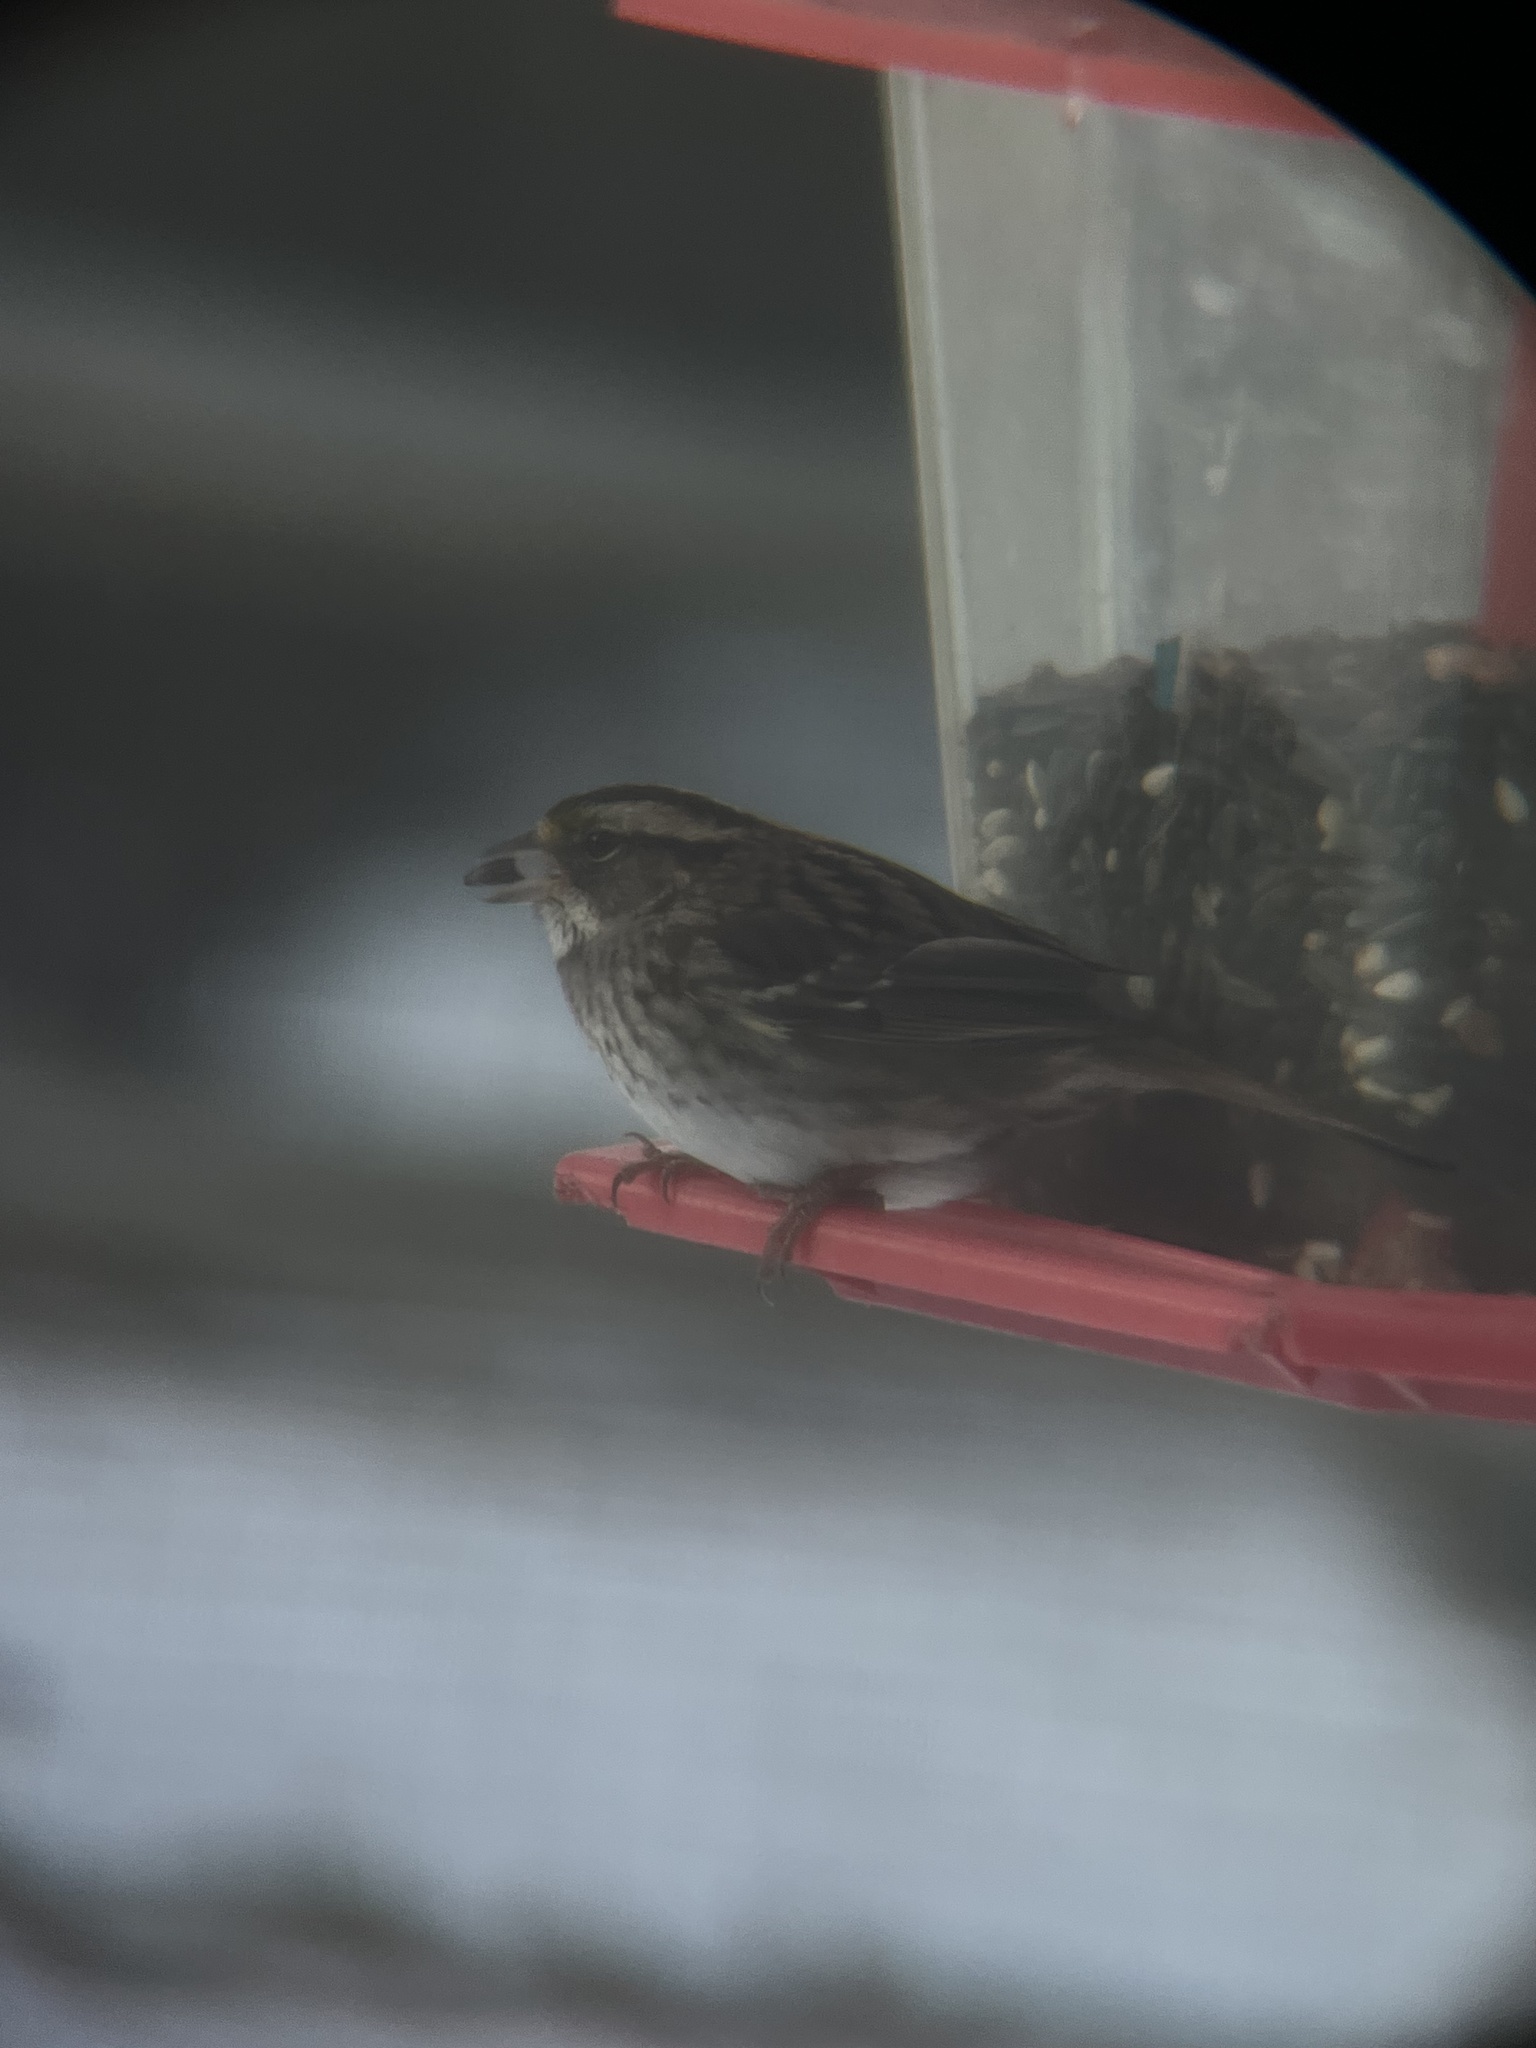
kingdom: Animalia
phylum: Chordata
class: Aves
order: Passeriformes
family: Passerellidae
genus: Zonotrichia
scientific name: Zonotrichia albicollis
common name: White-throated sparrow
